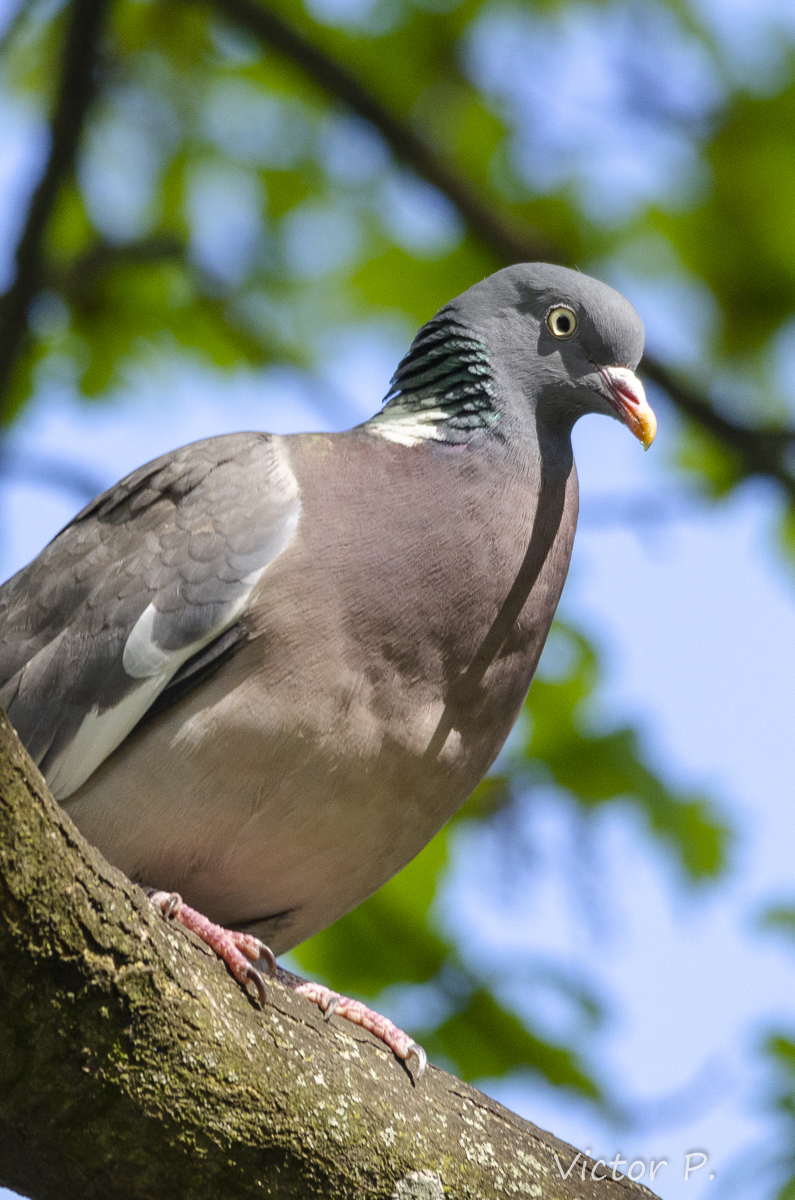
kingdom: Animalia
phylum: Chordata
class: Aves
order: Columbiformes
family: Columbidae
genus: Columba
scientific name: Columba palumbus
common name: Common wood pigeon
